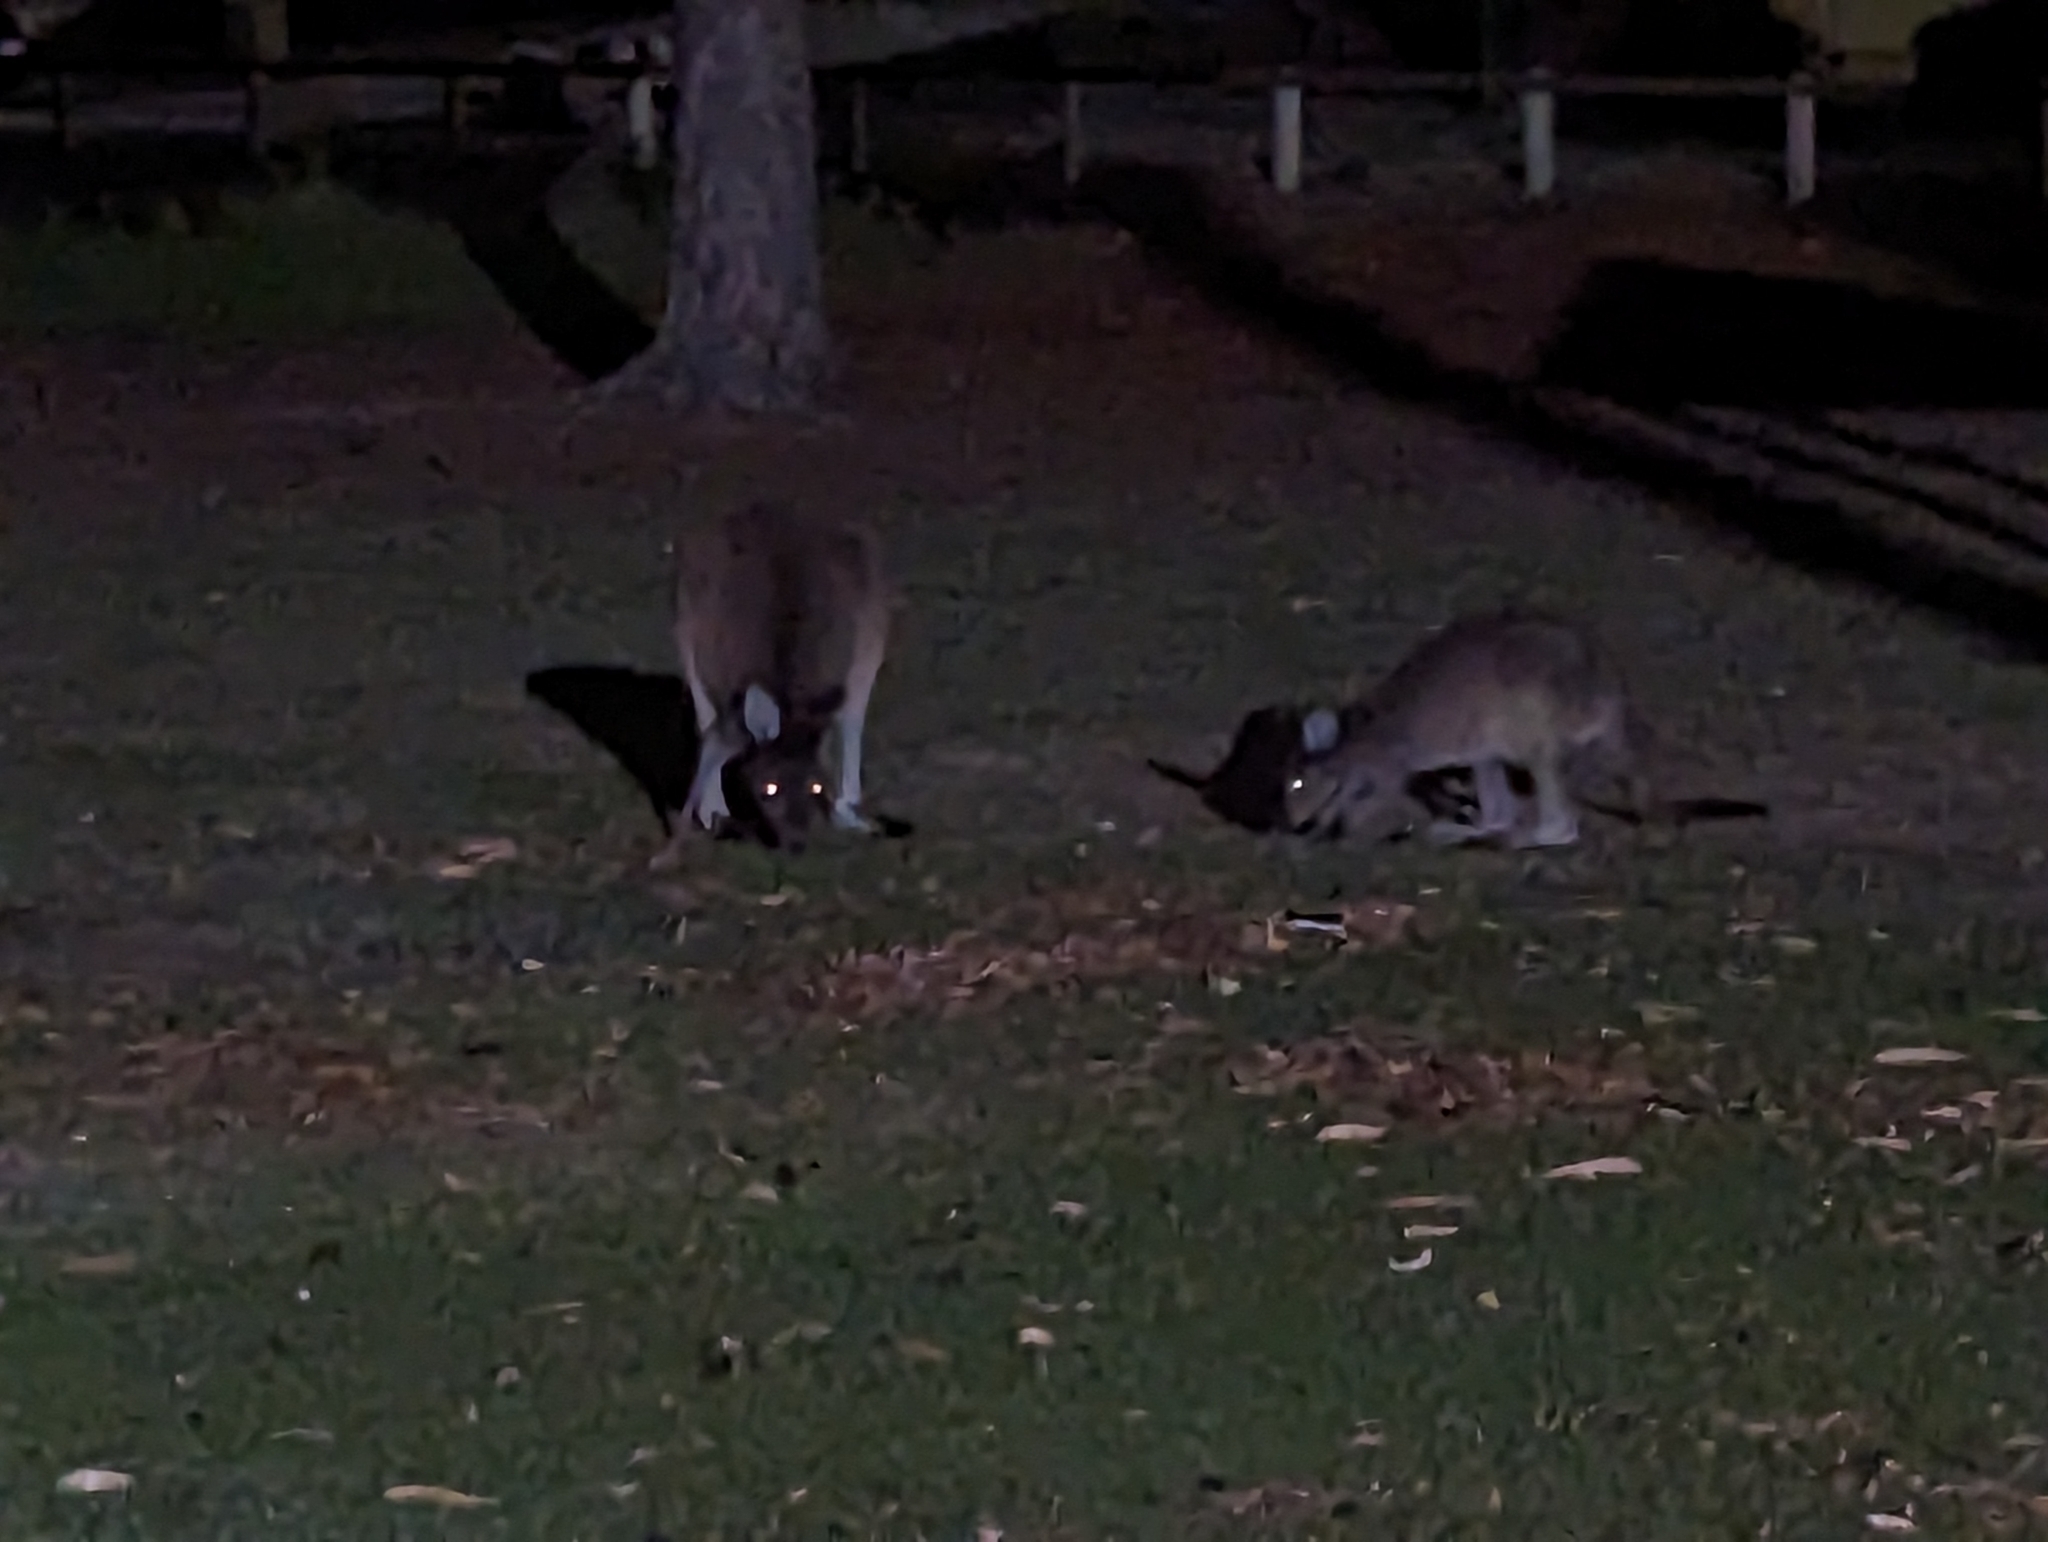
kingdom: Animalia
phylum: Chordata
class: Mammalia
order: Diprotodontia
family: Macropodidae
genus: Macropus
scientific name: Macropus fuliginosus
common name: Western grey kangaroo
